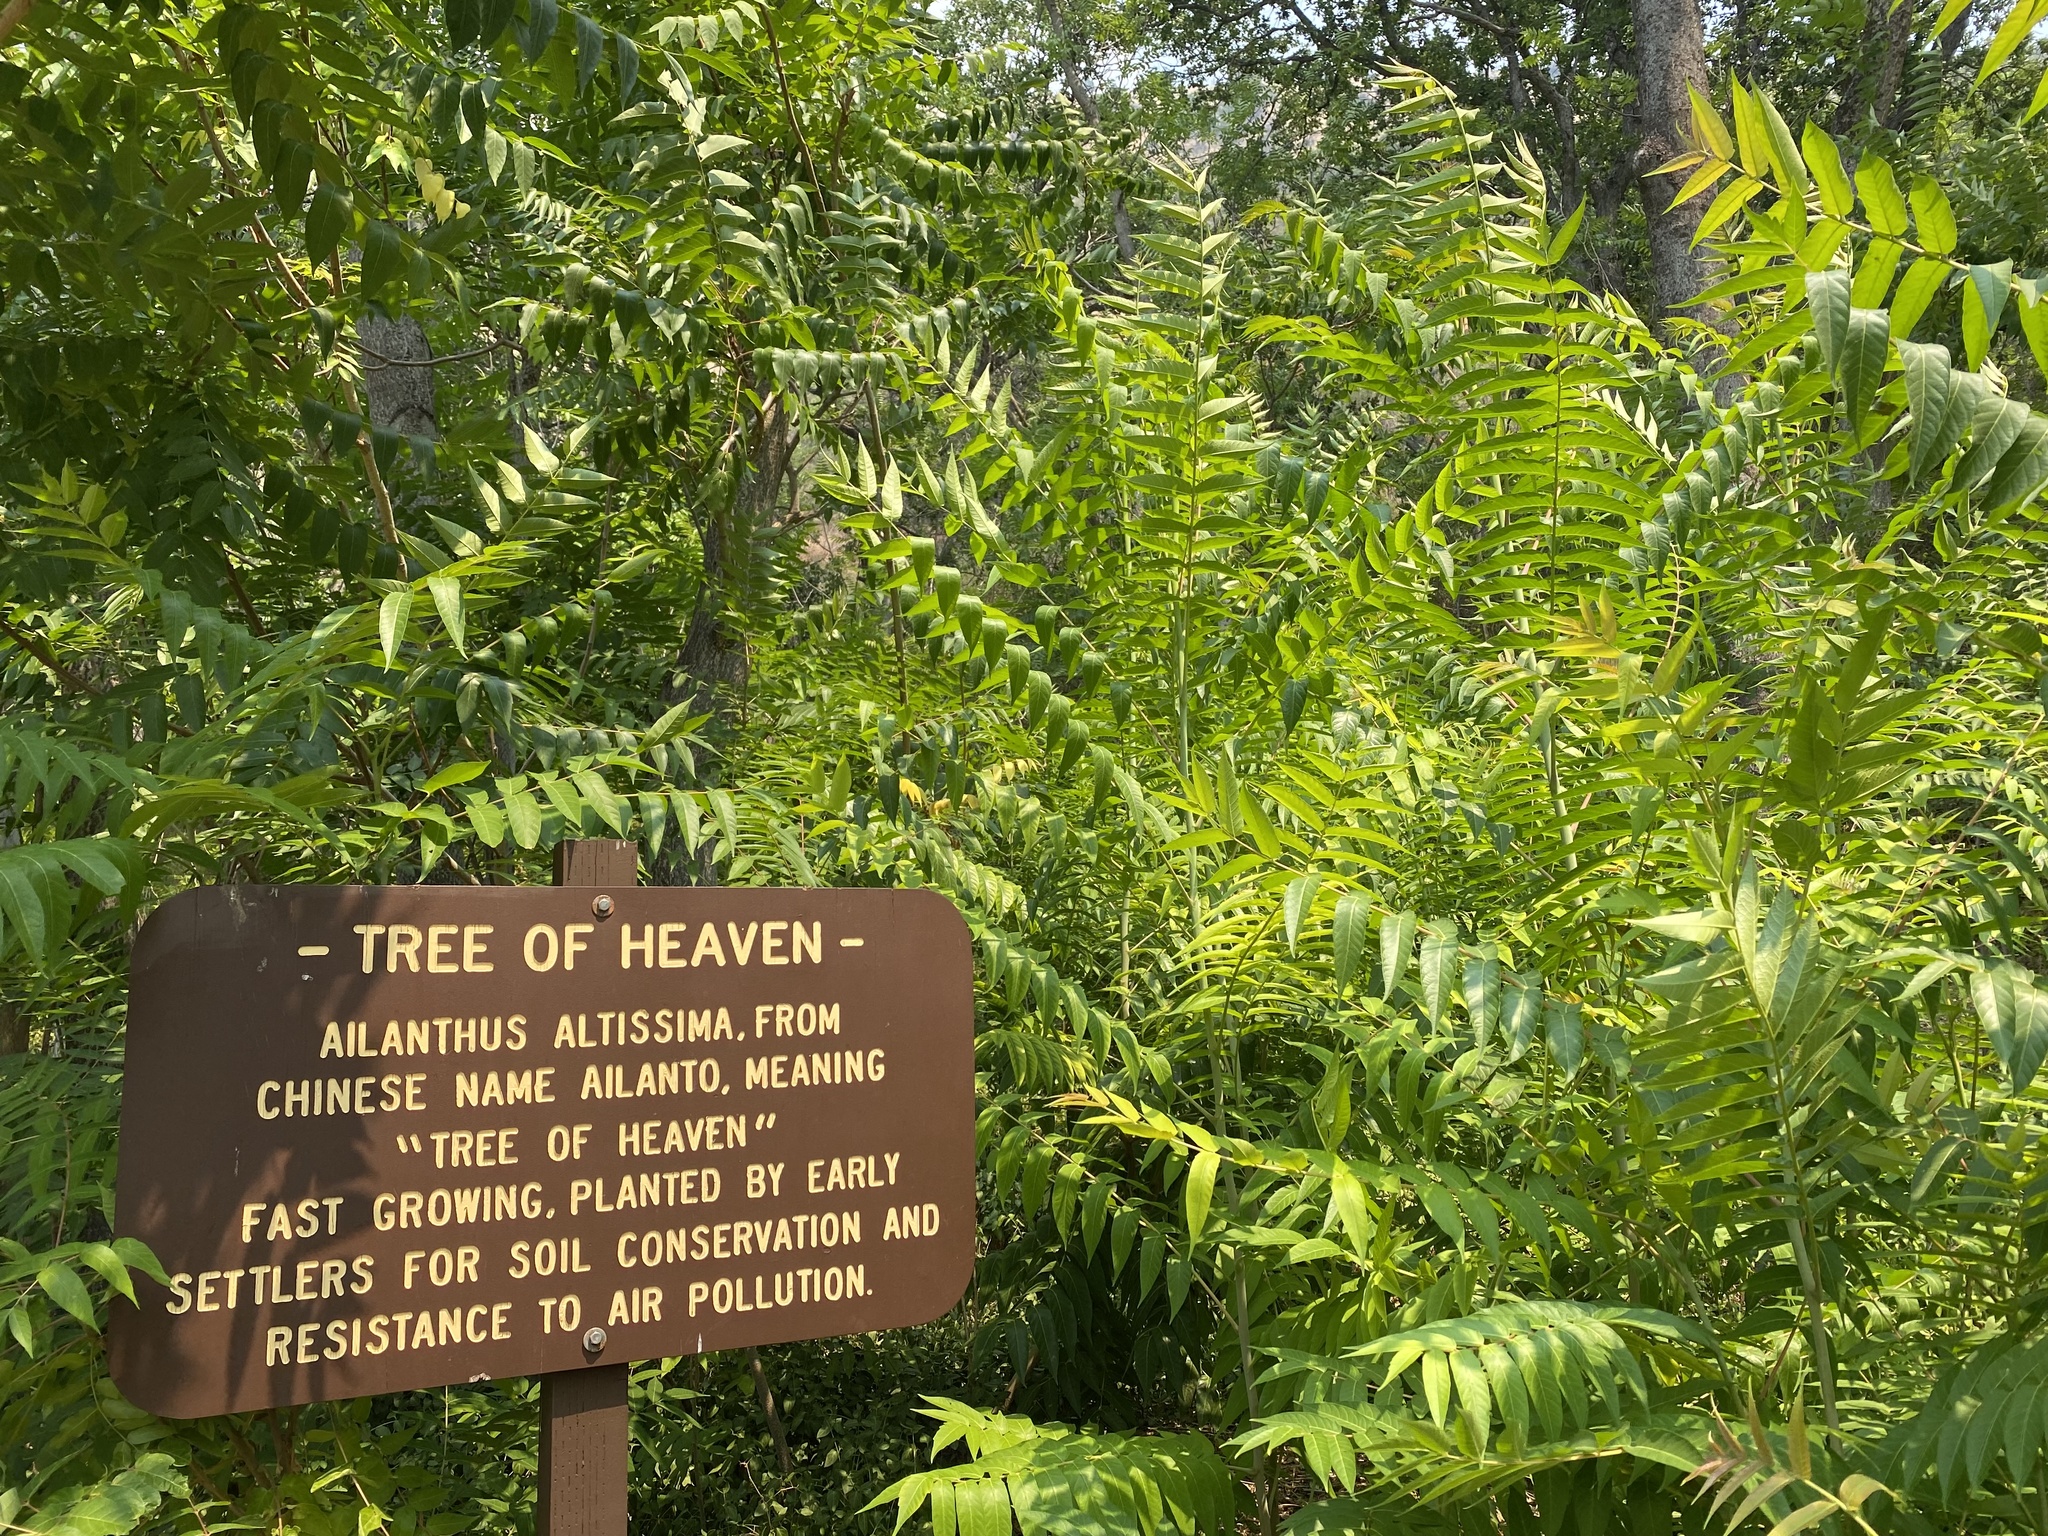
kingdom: Plantae
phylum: Tracheophyta
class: Magnoliopsida
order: Sapindales
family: Simaroubaceae
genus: Ailanthus
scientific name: Ailanthus altissima
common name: Tree-of-heaven
